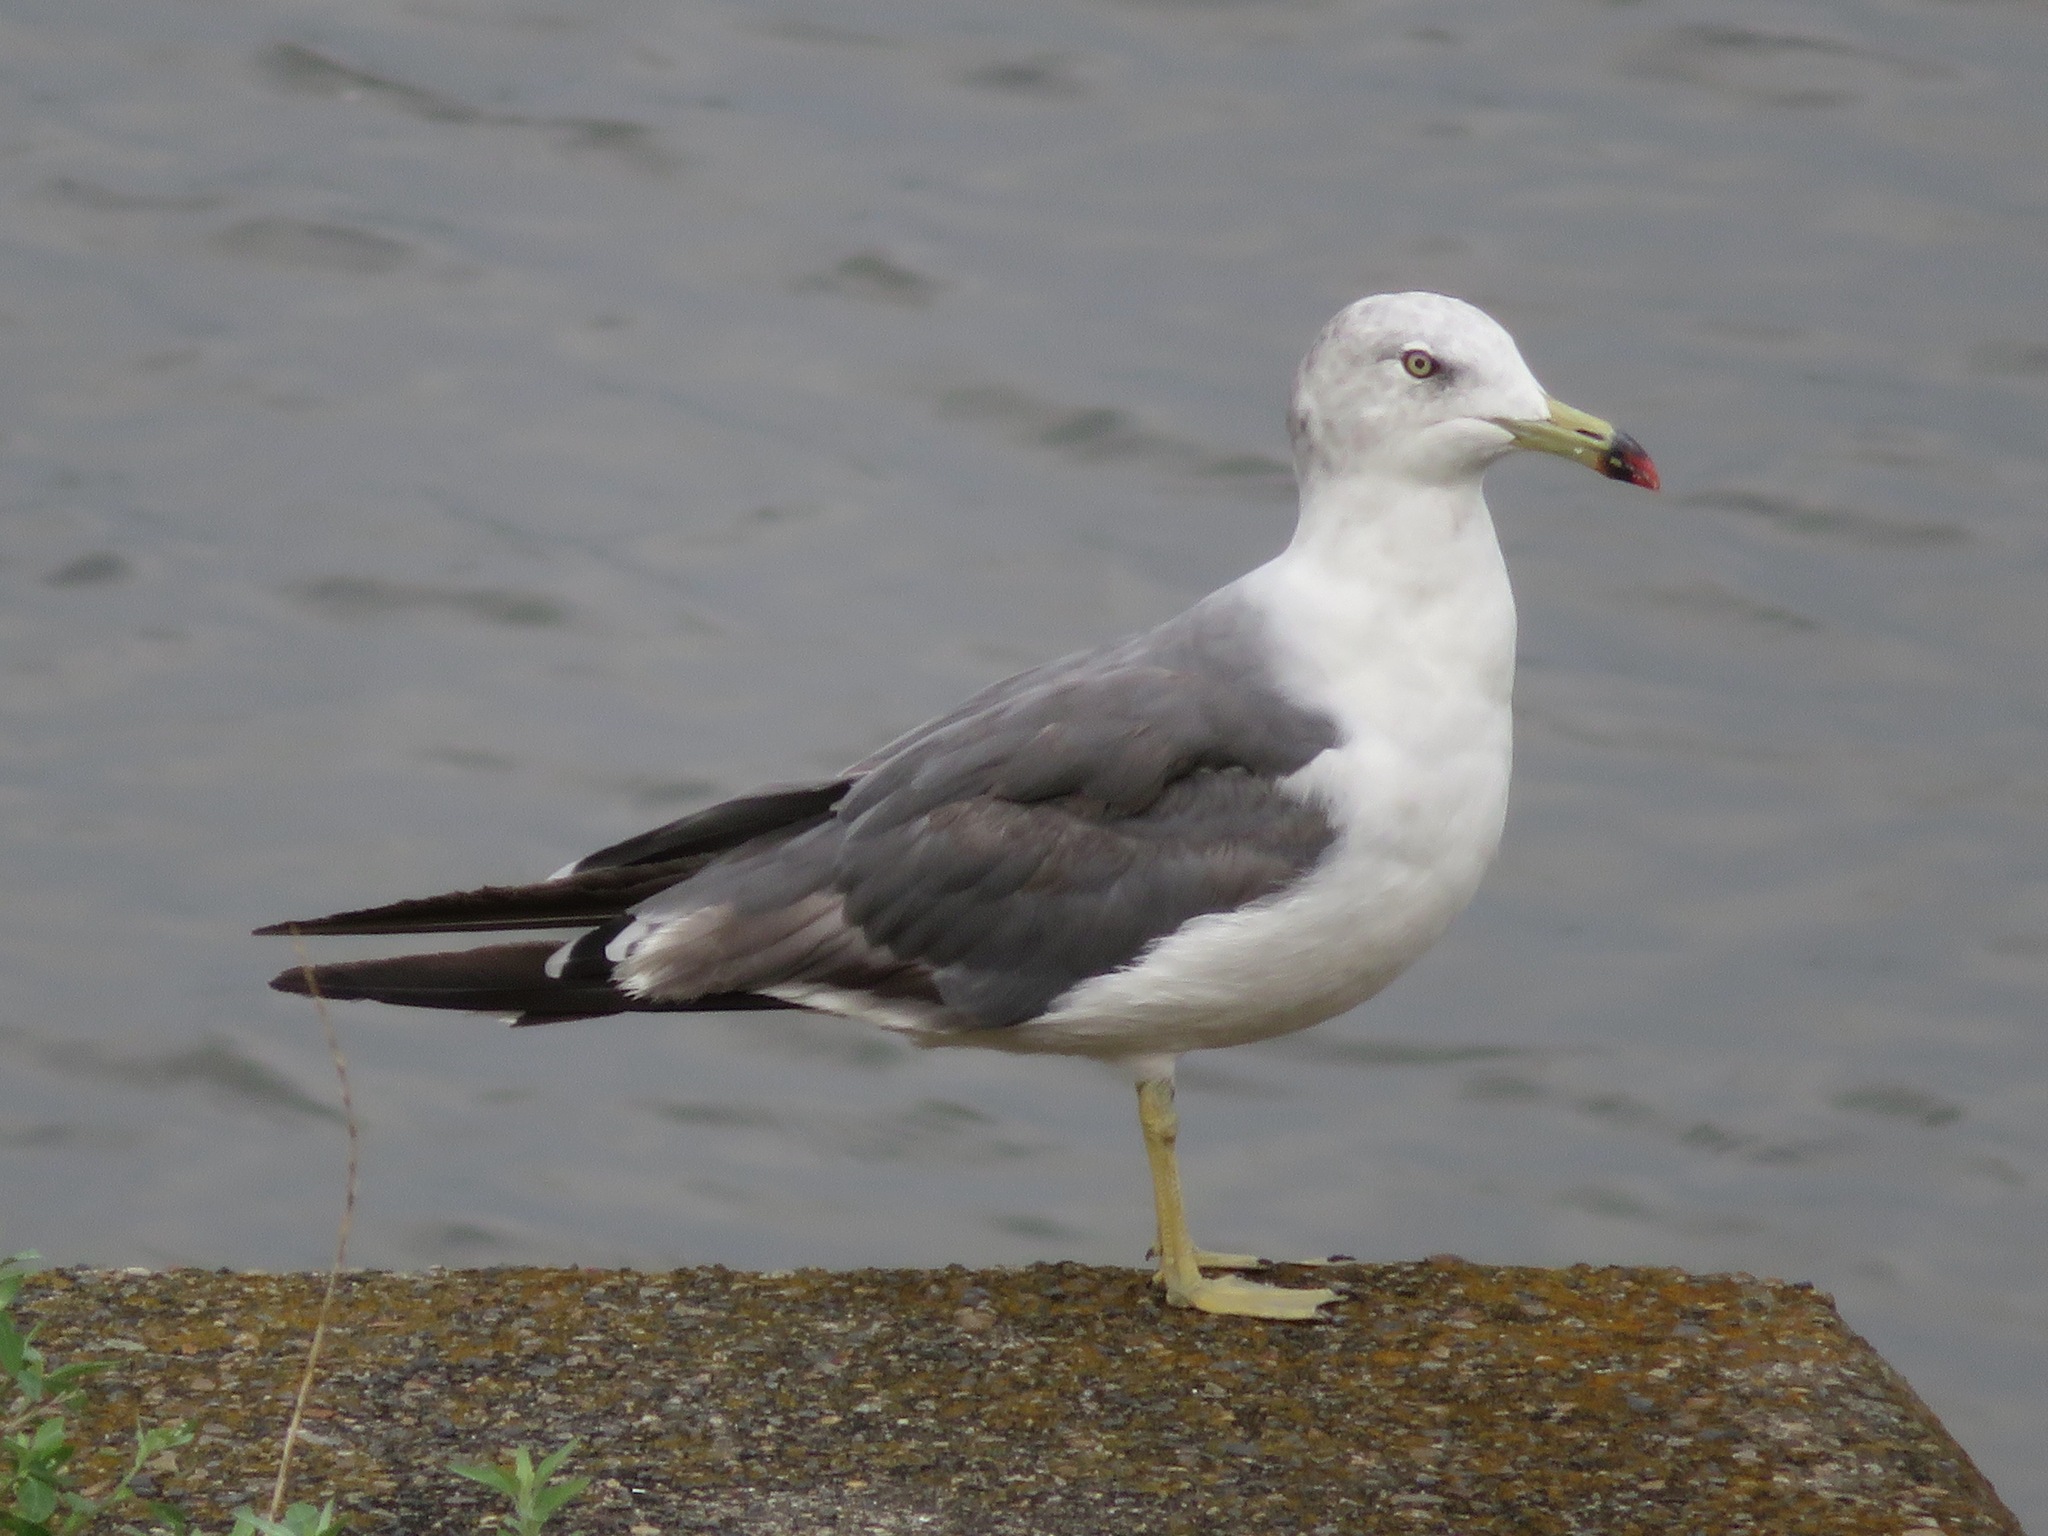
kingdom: Animalia
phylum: Chordata
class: Aves
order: Charadriiformes
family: Laridae
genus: Larus
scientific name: Larus crassirostris
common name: Black-tailed gull
